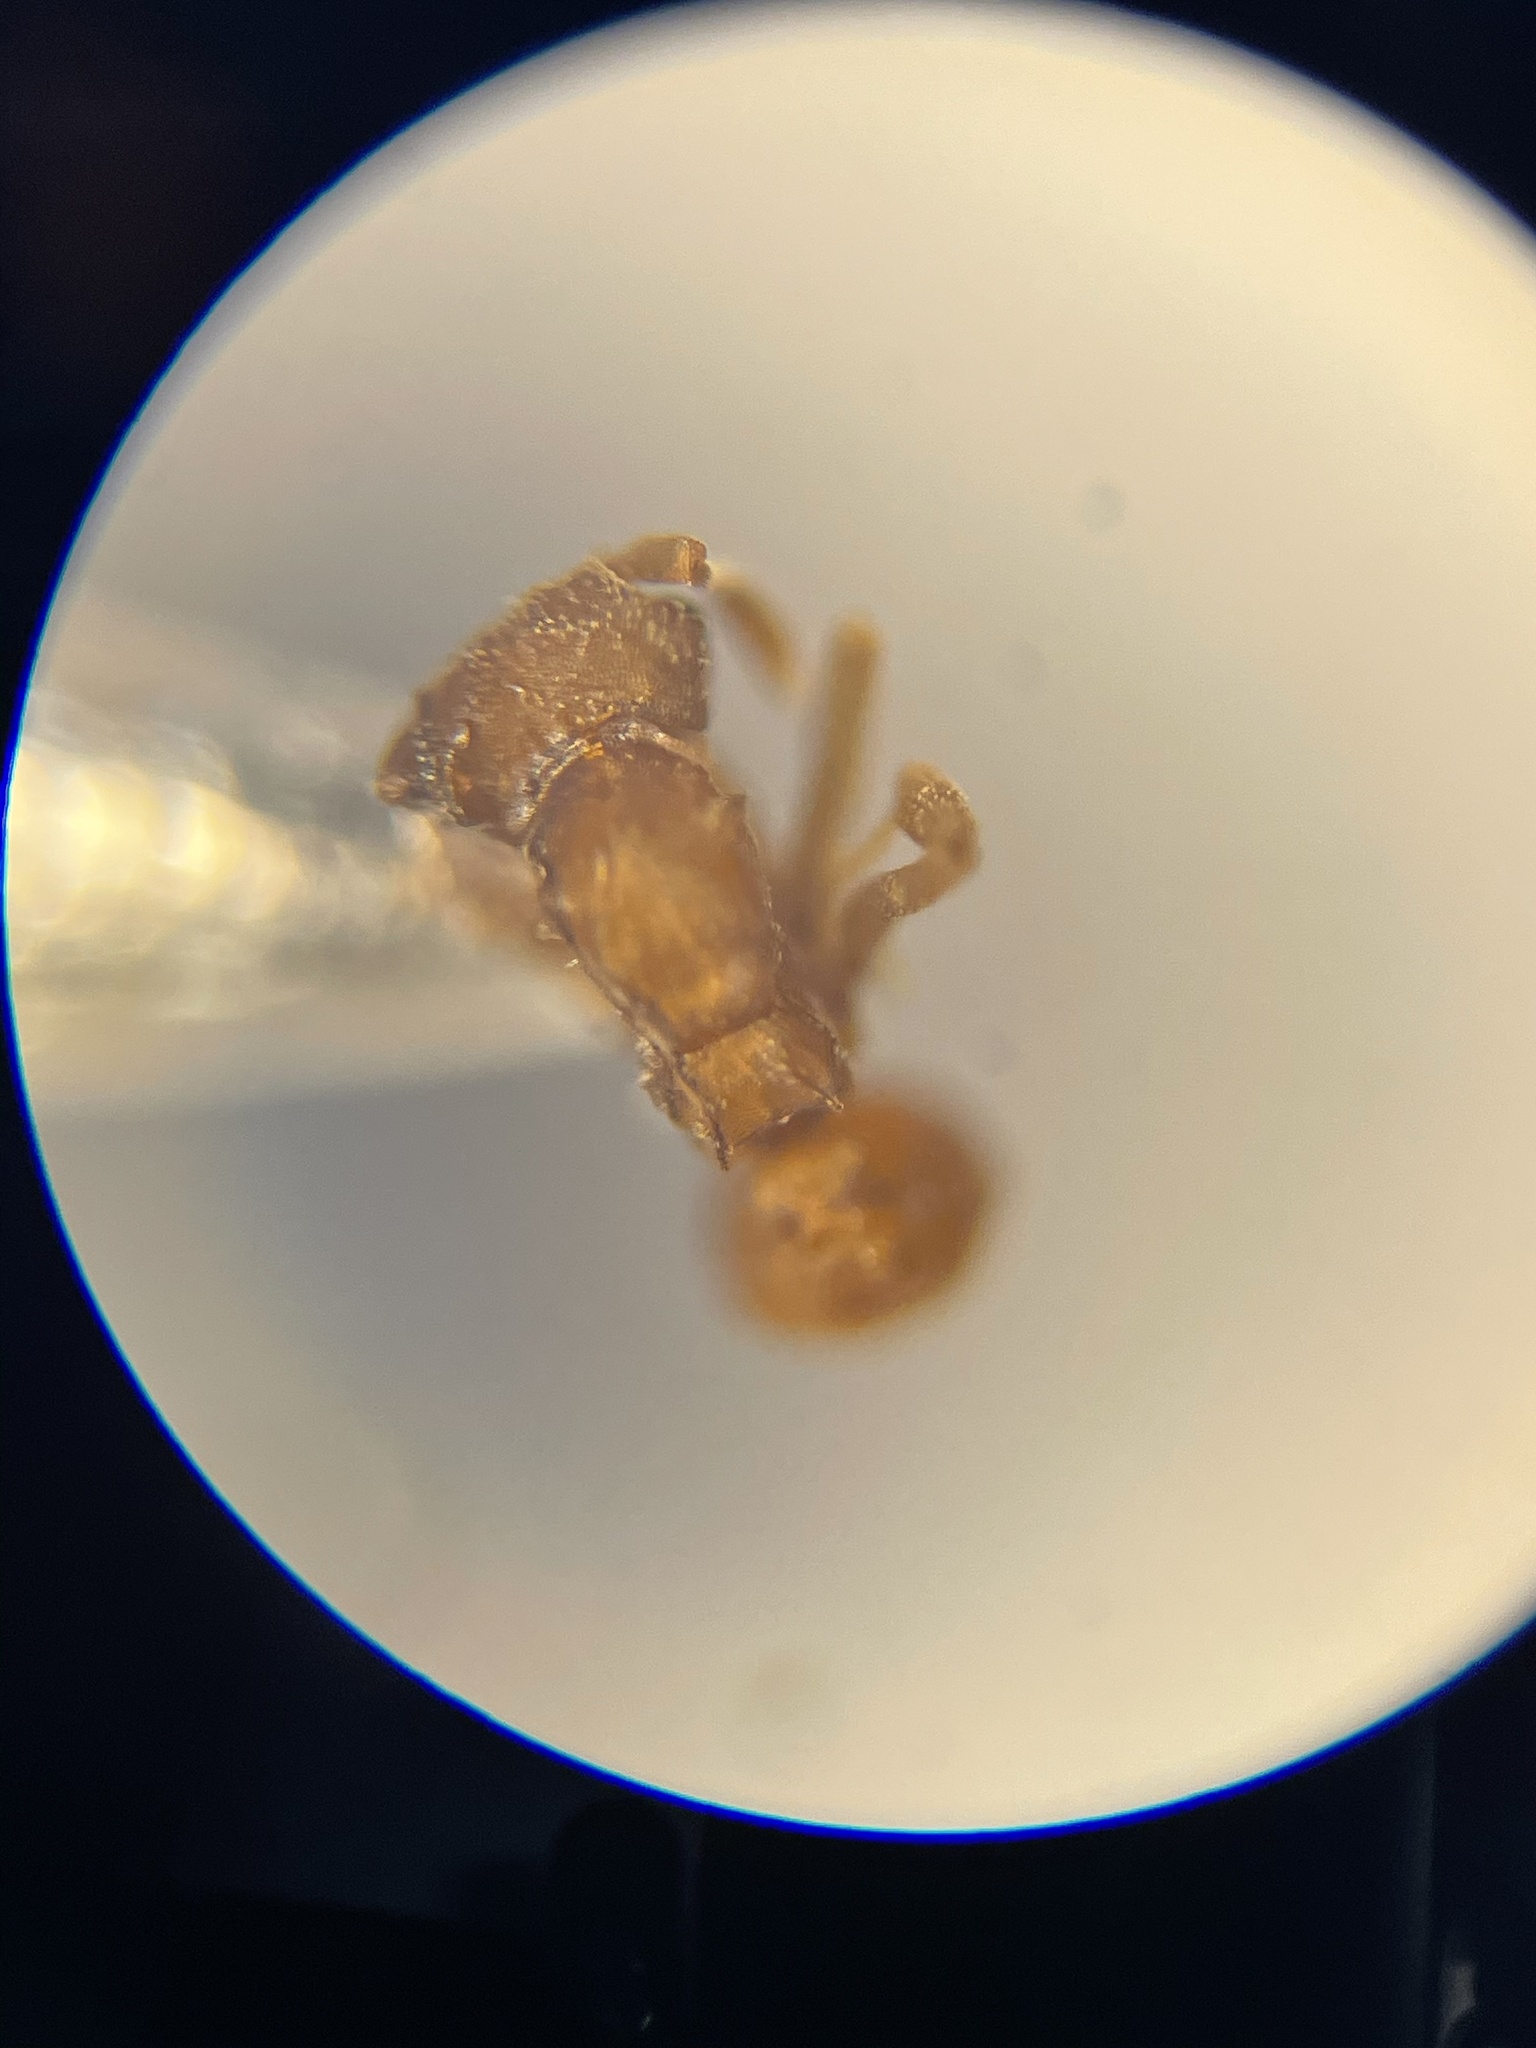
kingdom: Animalia
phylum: Arthropoda
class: Insecta
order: Hymenoptera
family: Formicidae
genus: Cyphomyrmex
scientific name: Cyphomyrmex wheeleri
